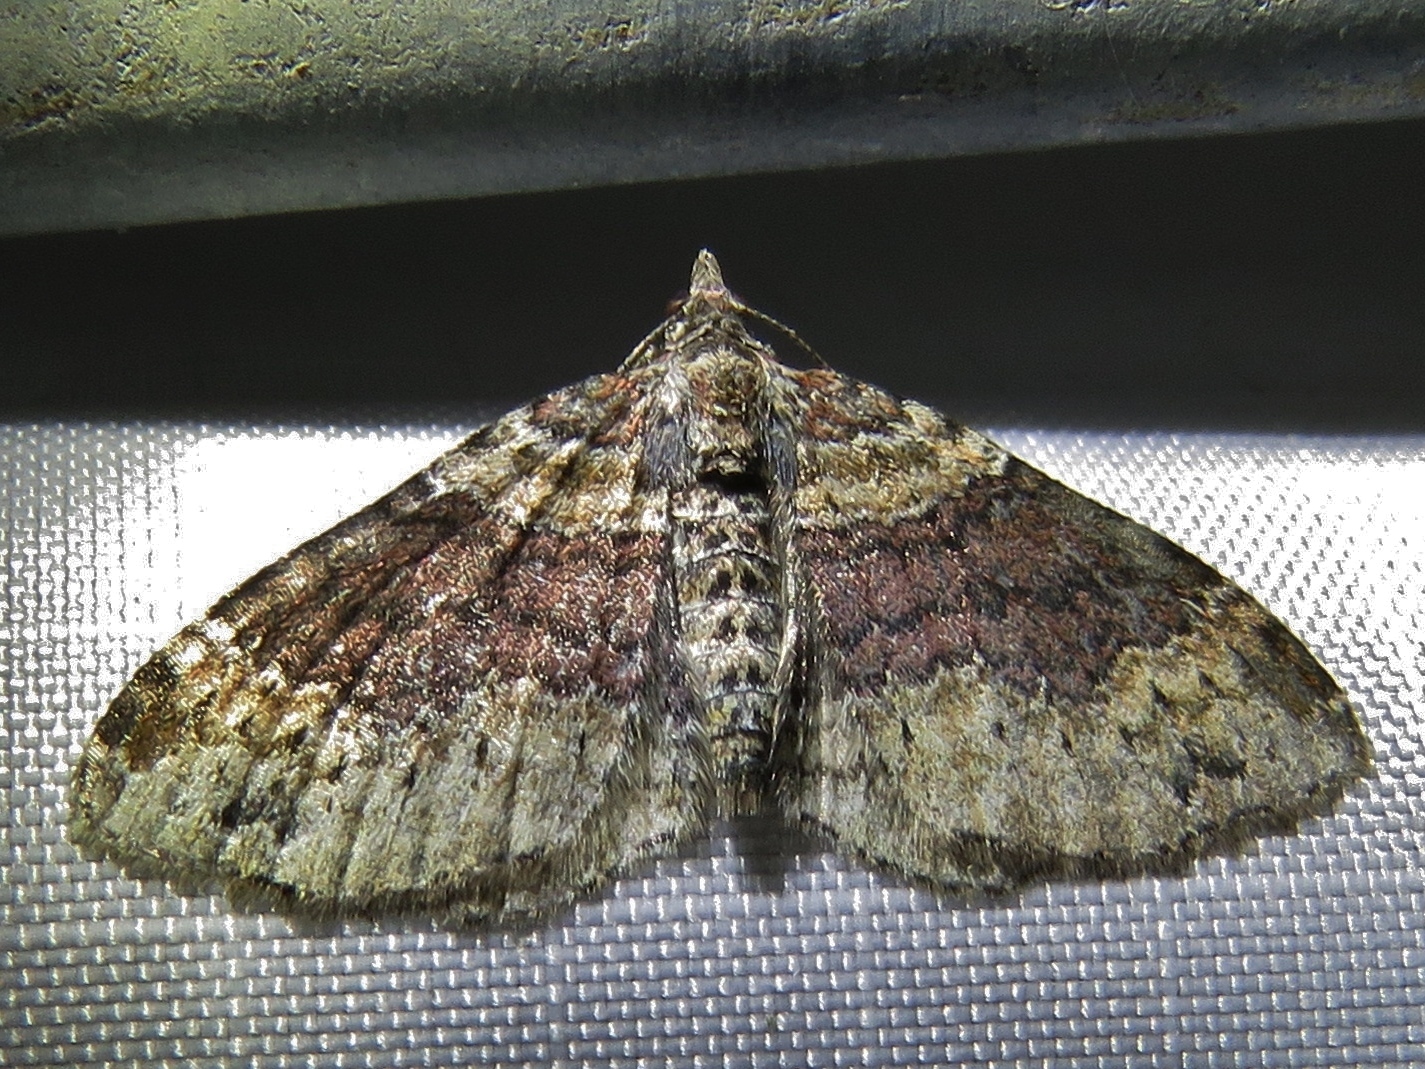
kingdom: Animalia
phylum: Arthropoda
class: Insecta
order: Lepidoptera
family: Geometridae
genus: Xanthorhoe
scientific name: Xanthorhoe ferrugata
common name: Dark-barred twin-spot carpet
